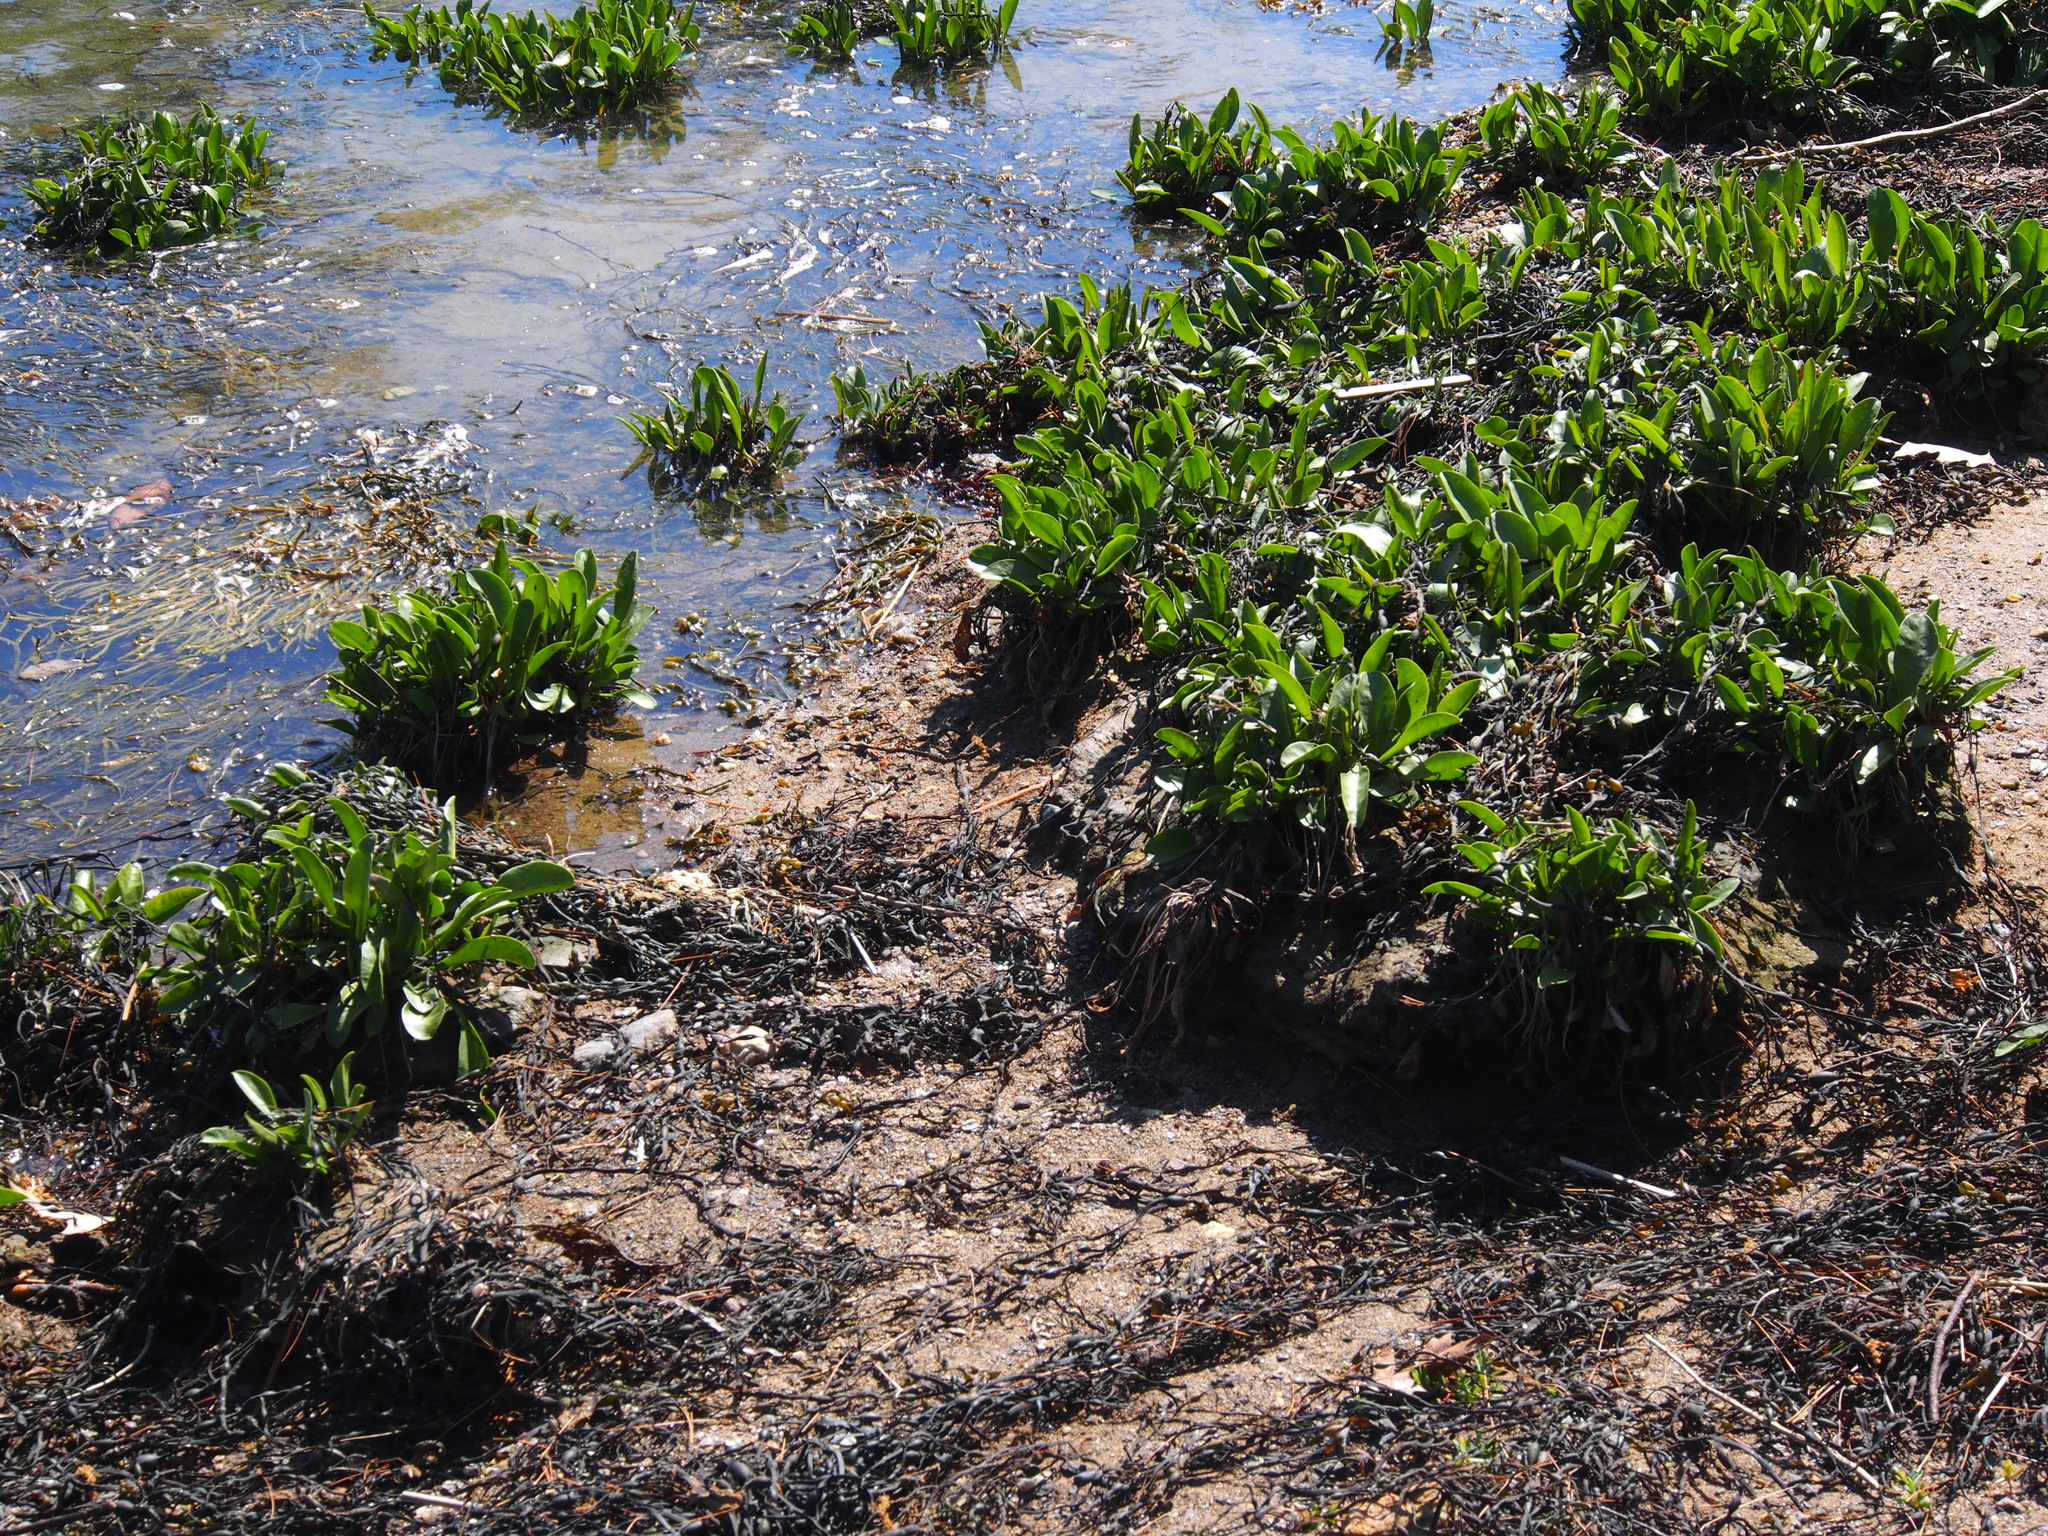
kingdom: Plantae
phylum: Tracheophyta
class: Magnoliopsida
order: Caryophyllales
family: Plumbaginaceae
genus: Limonium
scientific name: Limonium carolinianum
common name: Carolina sea lavender
